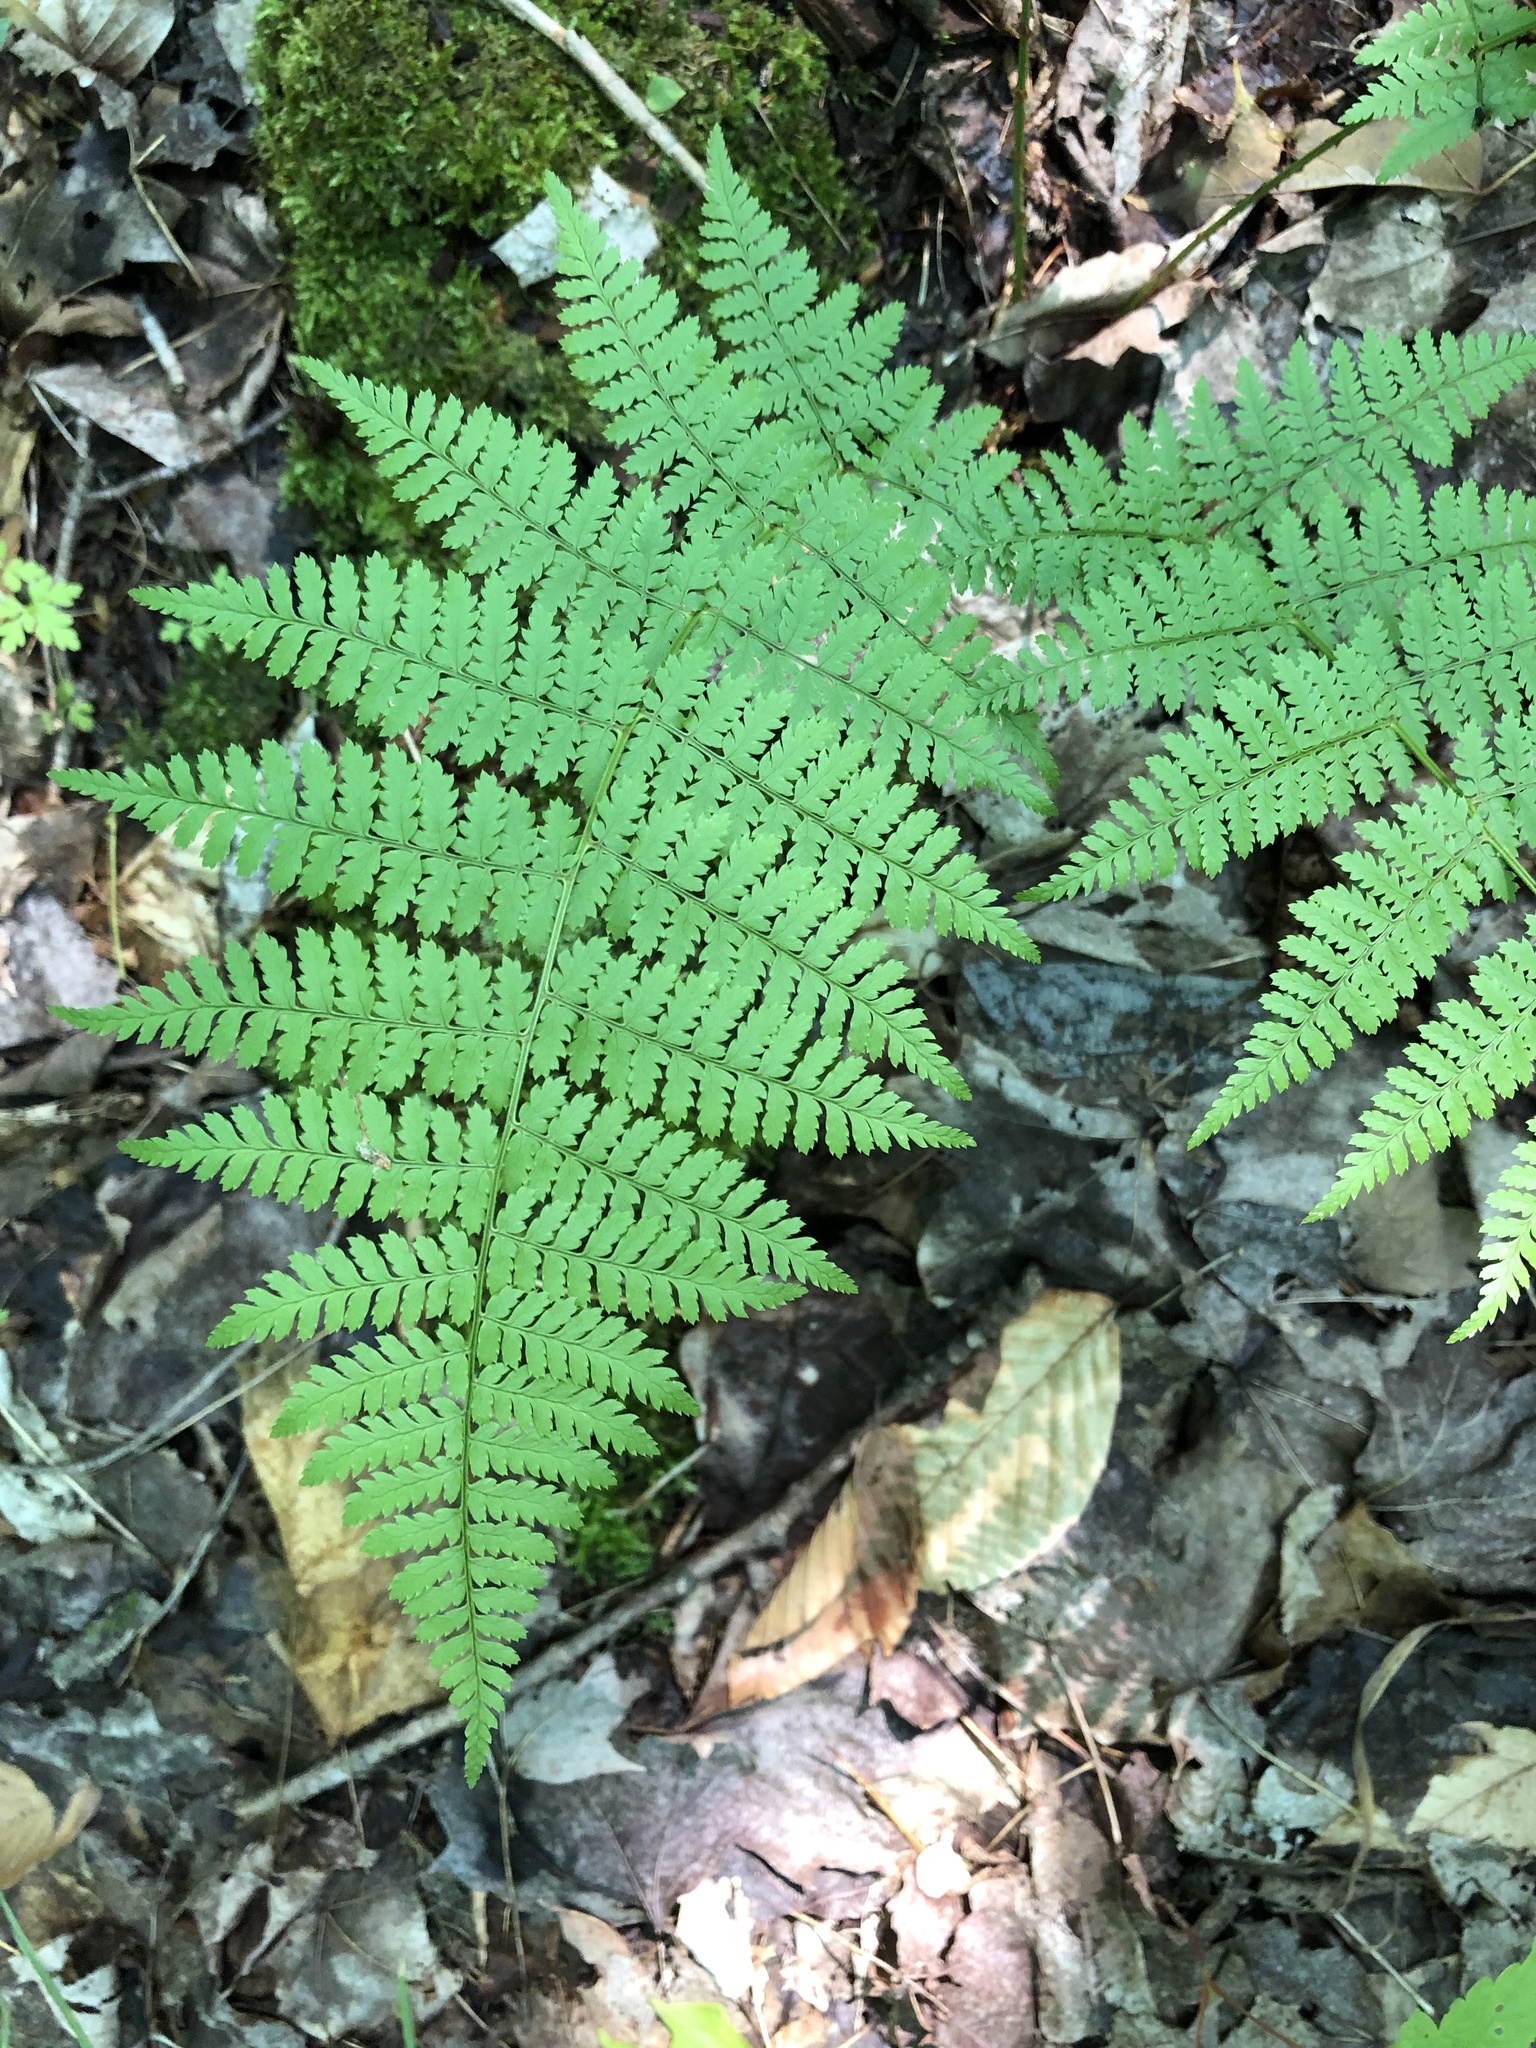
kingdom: Plantae
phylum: Tracheophyta
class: Polypodiopsida
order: Polypodiales
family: Dryopteridaceae
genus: Dryopteris
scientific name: Dryopteris intermedia
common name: Evergreen wood fern
